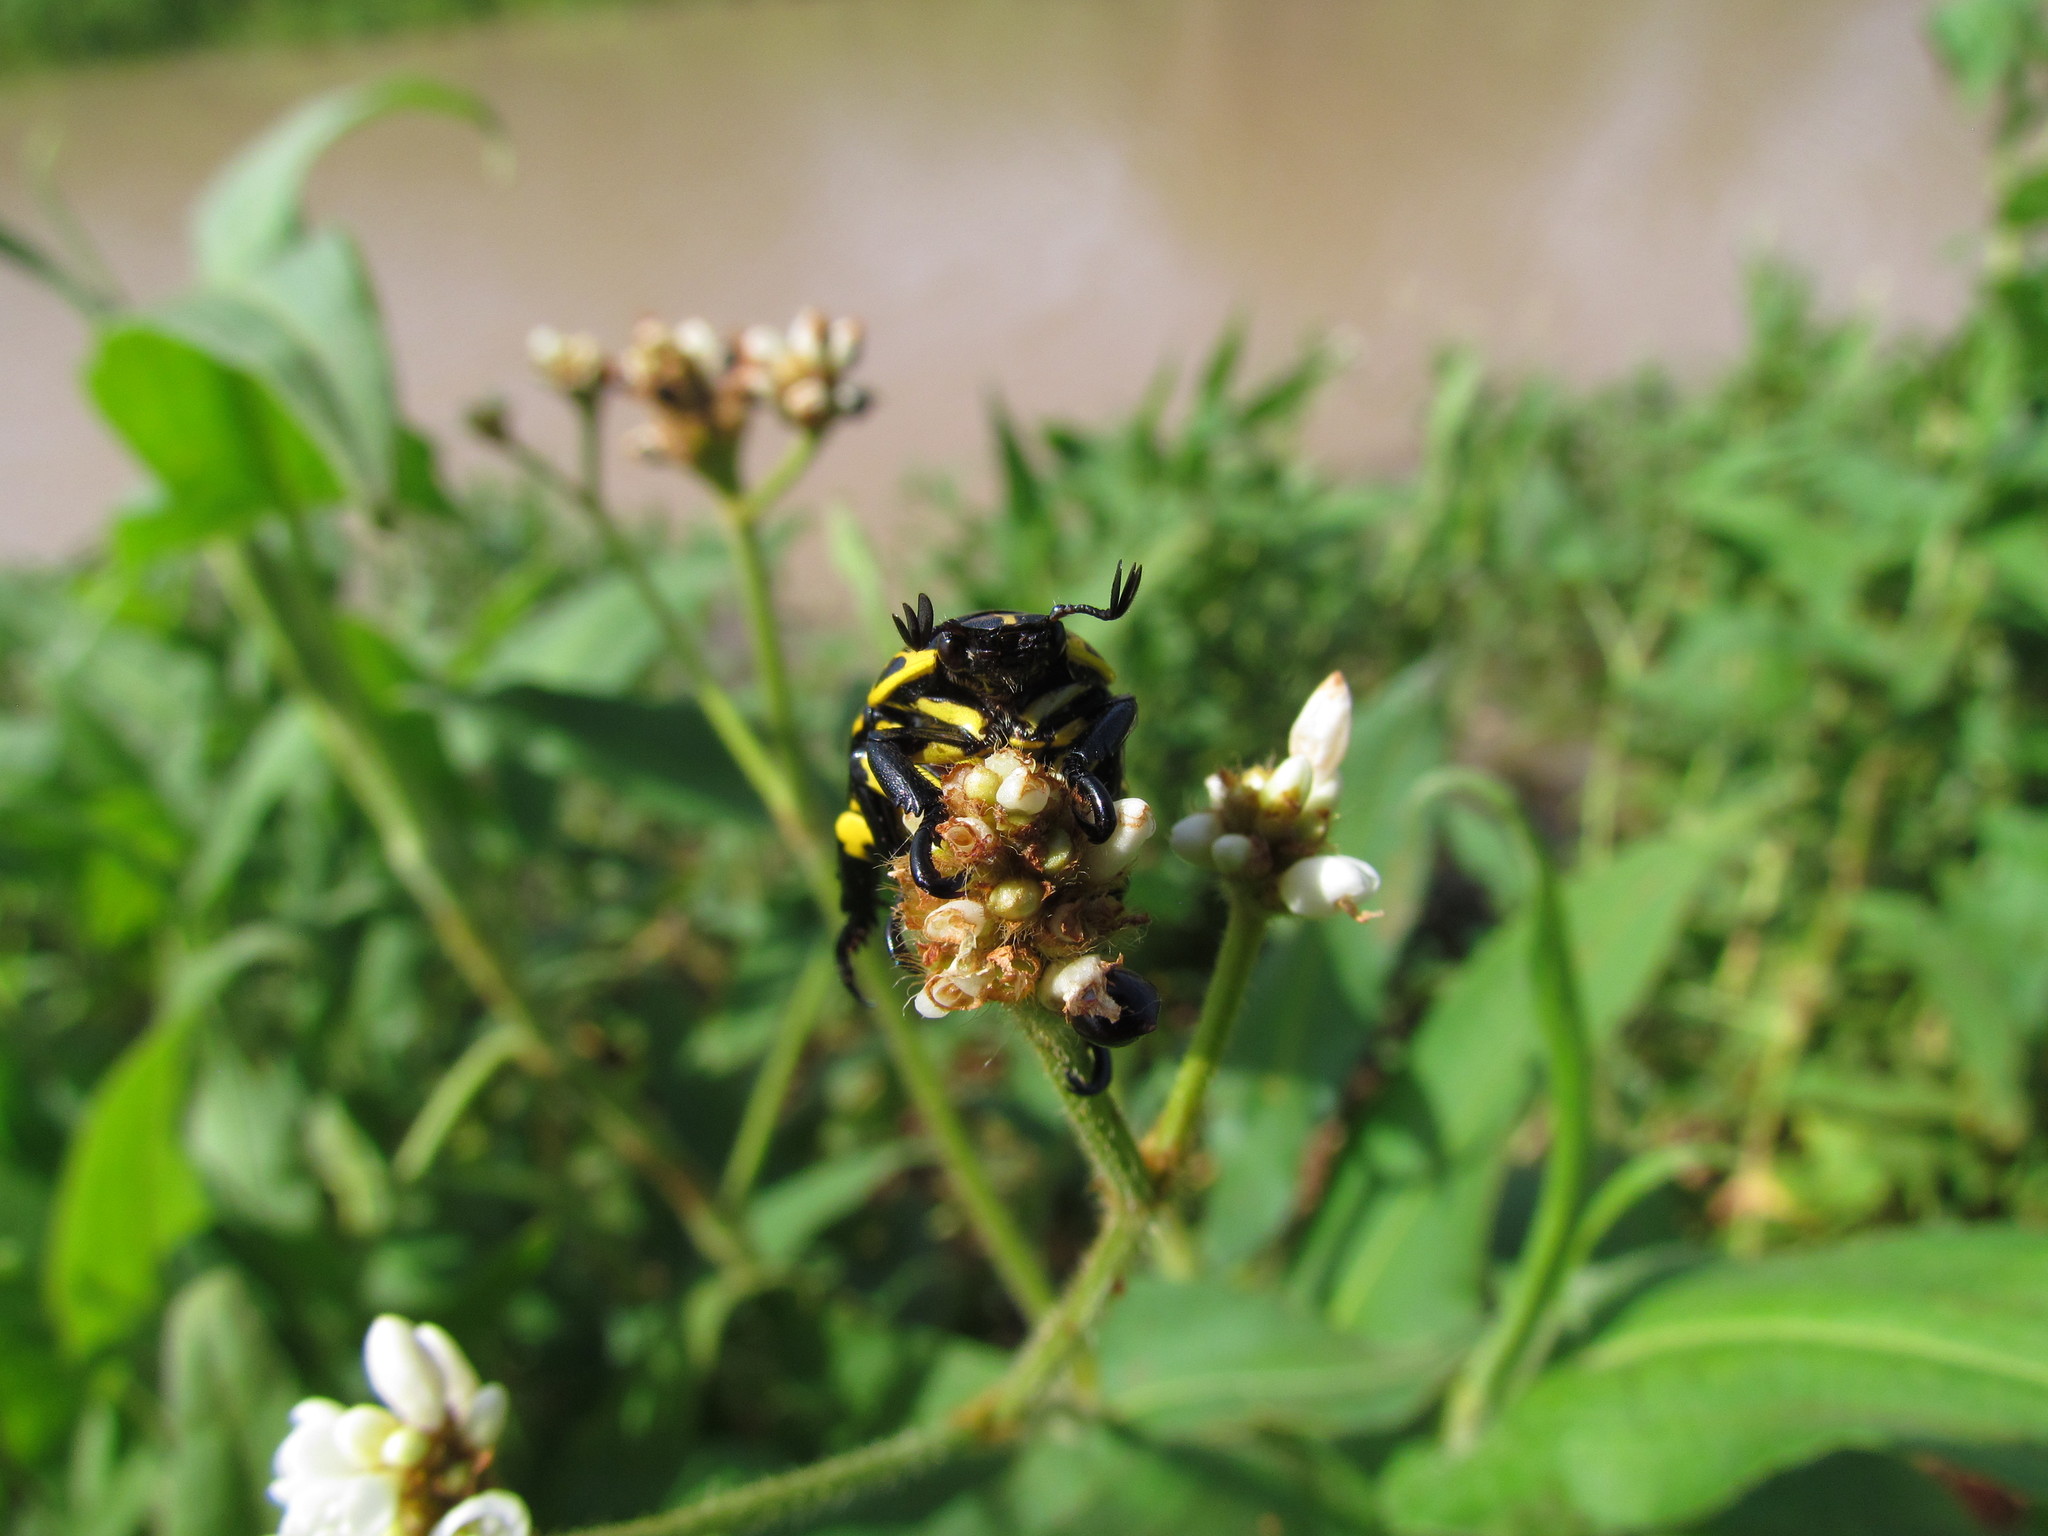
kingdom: Animalia
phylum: Arthropoda
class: Insecta
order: Coleoptera
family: Scarabaeidae
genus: Rutela
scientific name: Rutela lineola
